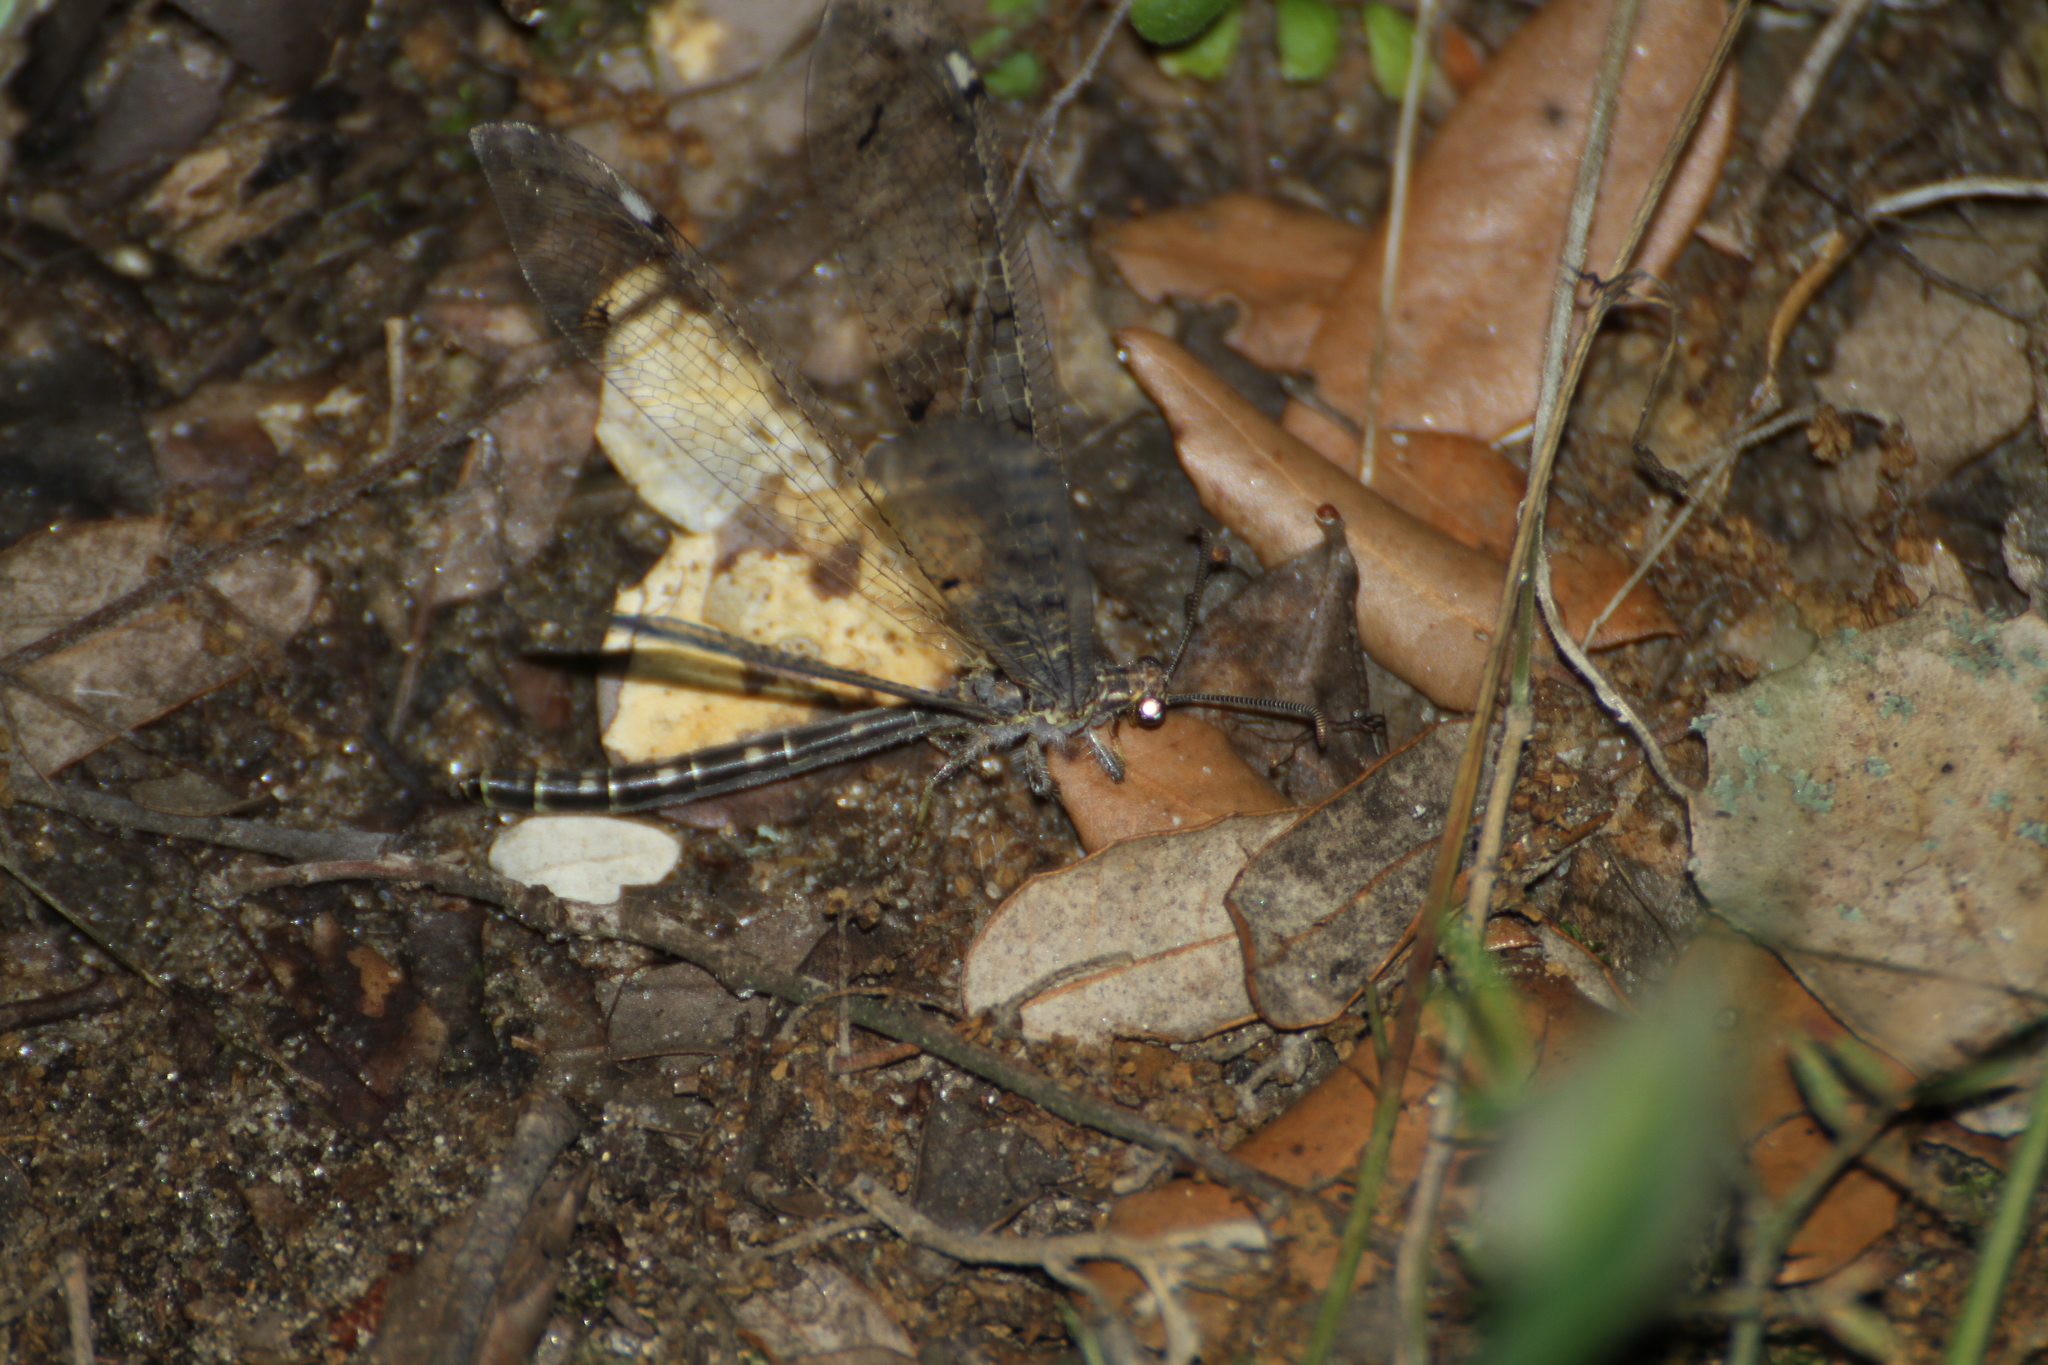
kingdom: Animalia
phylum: Arthropoda
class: Insecta
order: Neuroptera
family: Myrmeleontidae
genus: Distoleon
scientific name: Distoleon tetragrammicus
